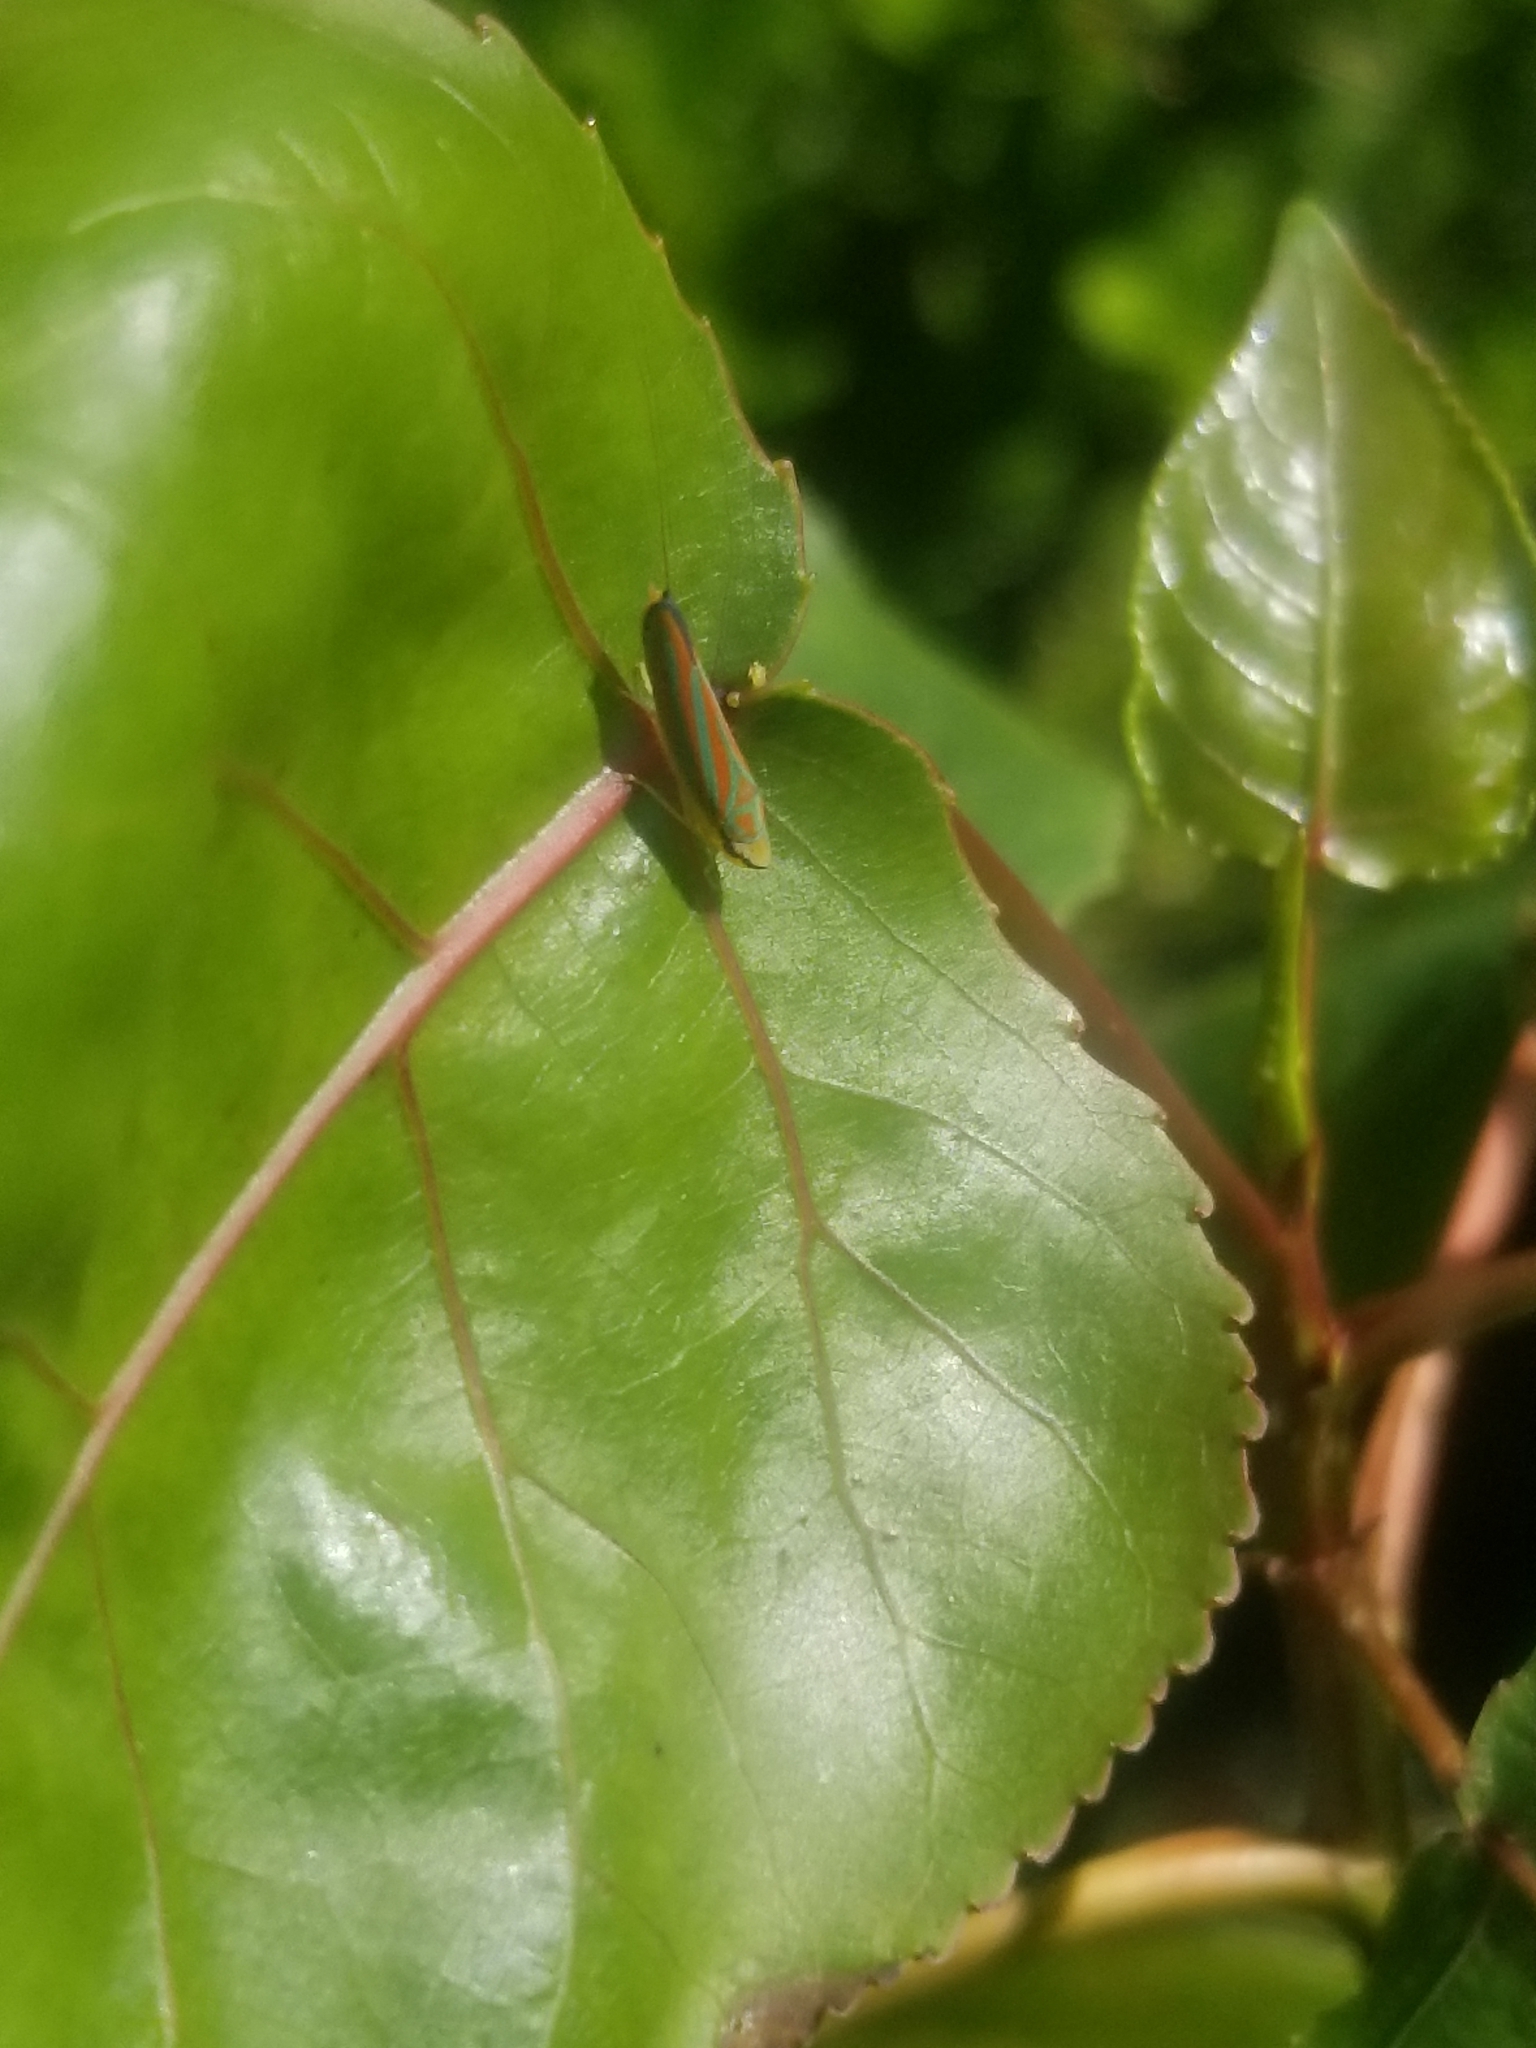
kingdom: Animalia
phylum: Arthropoda
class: Insecta
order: Hemiptera
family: Cicadellidae
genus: Graphocephala
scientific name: Graphocephala coccinea
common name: Candy-striped leafhopper
